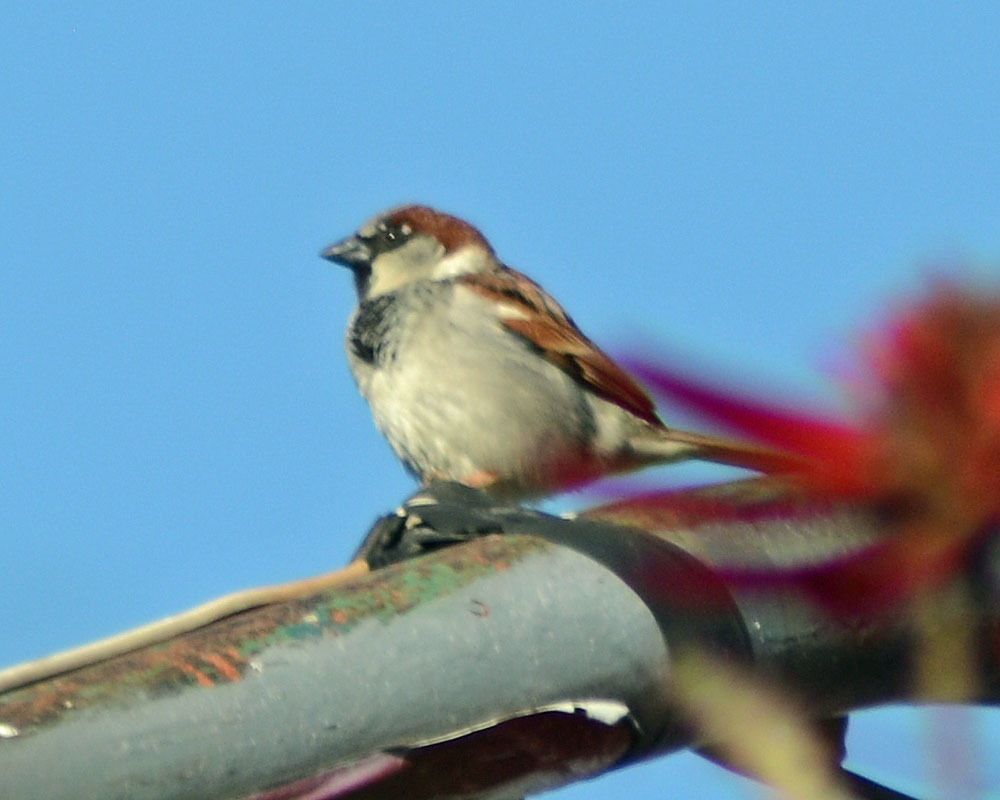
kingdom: Animalia
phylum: Chordata
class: Aves
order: Passeriformes
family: Passeridae
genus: Passer
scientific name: Passer domesticus
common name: House sparrow
